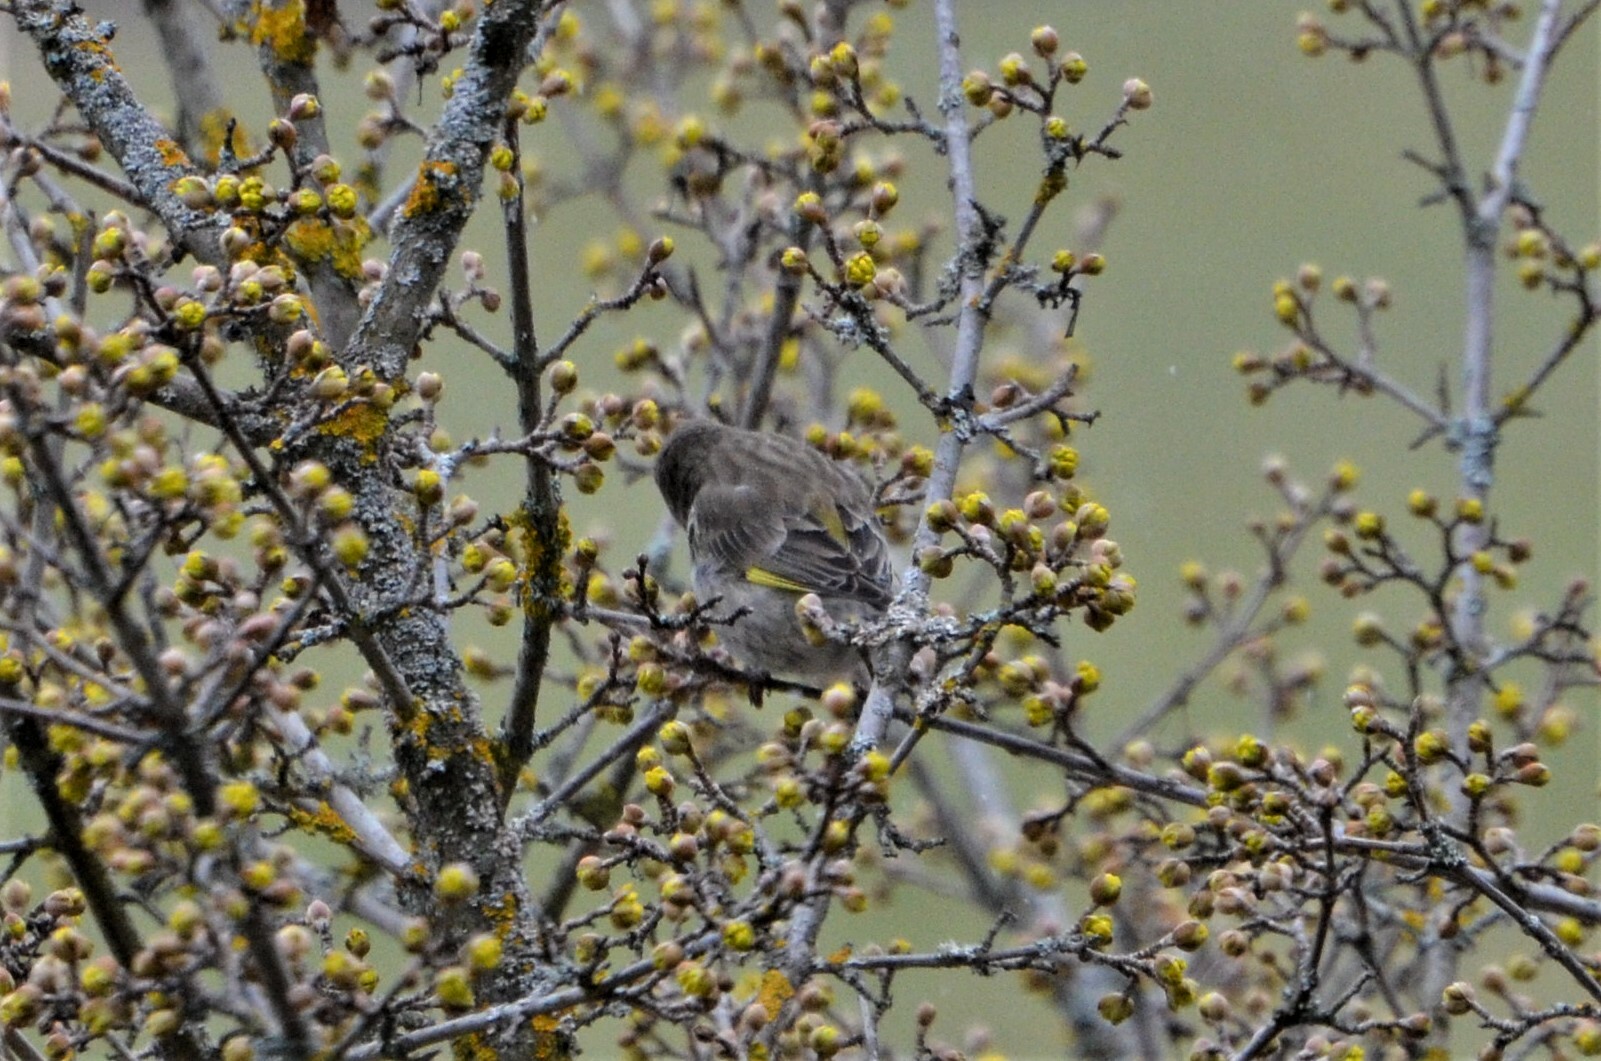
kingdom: Plantae
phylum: Tracheophyta
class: Liliopsida
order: Poales
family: Poaceae
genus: Chloris
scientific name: Chloris chloris
